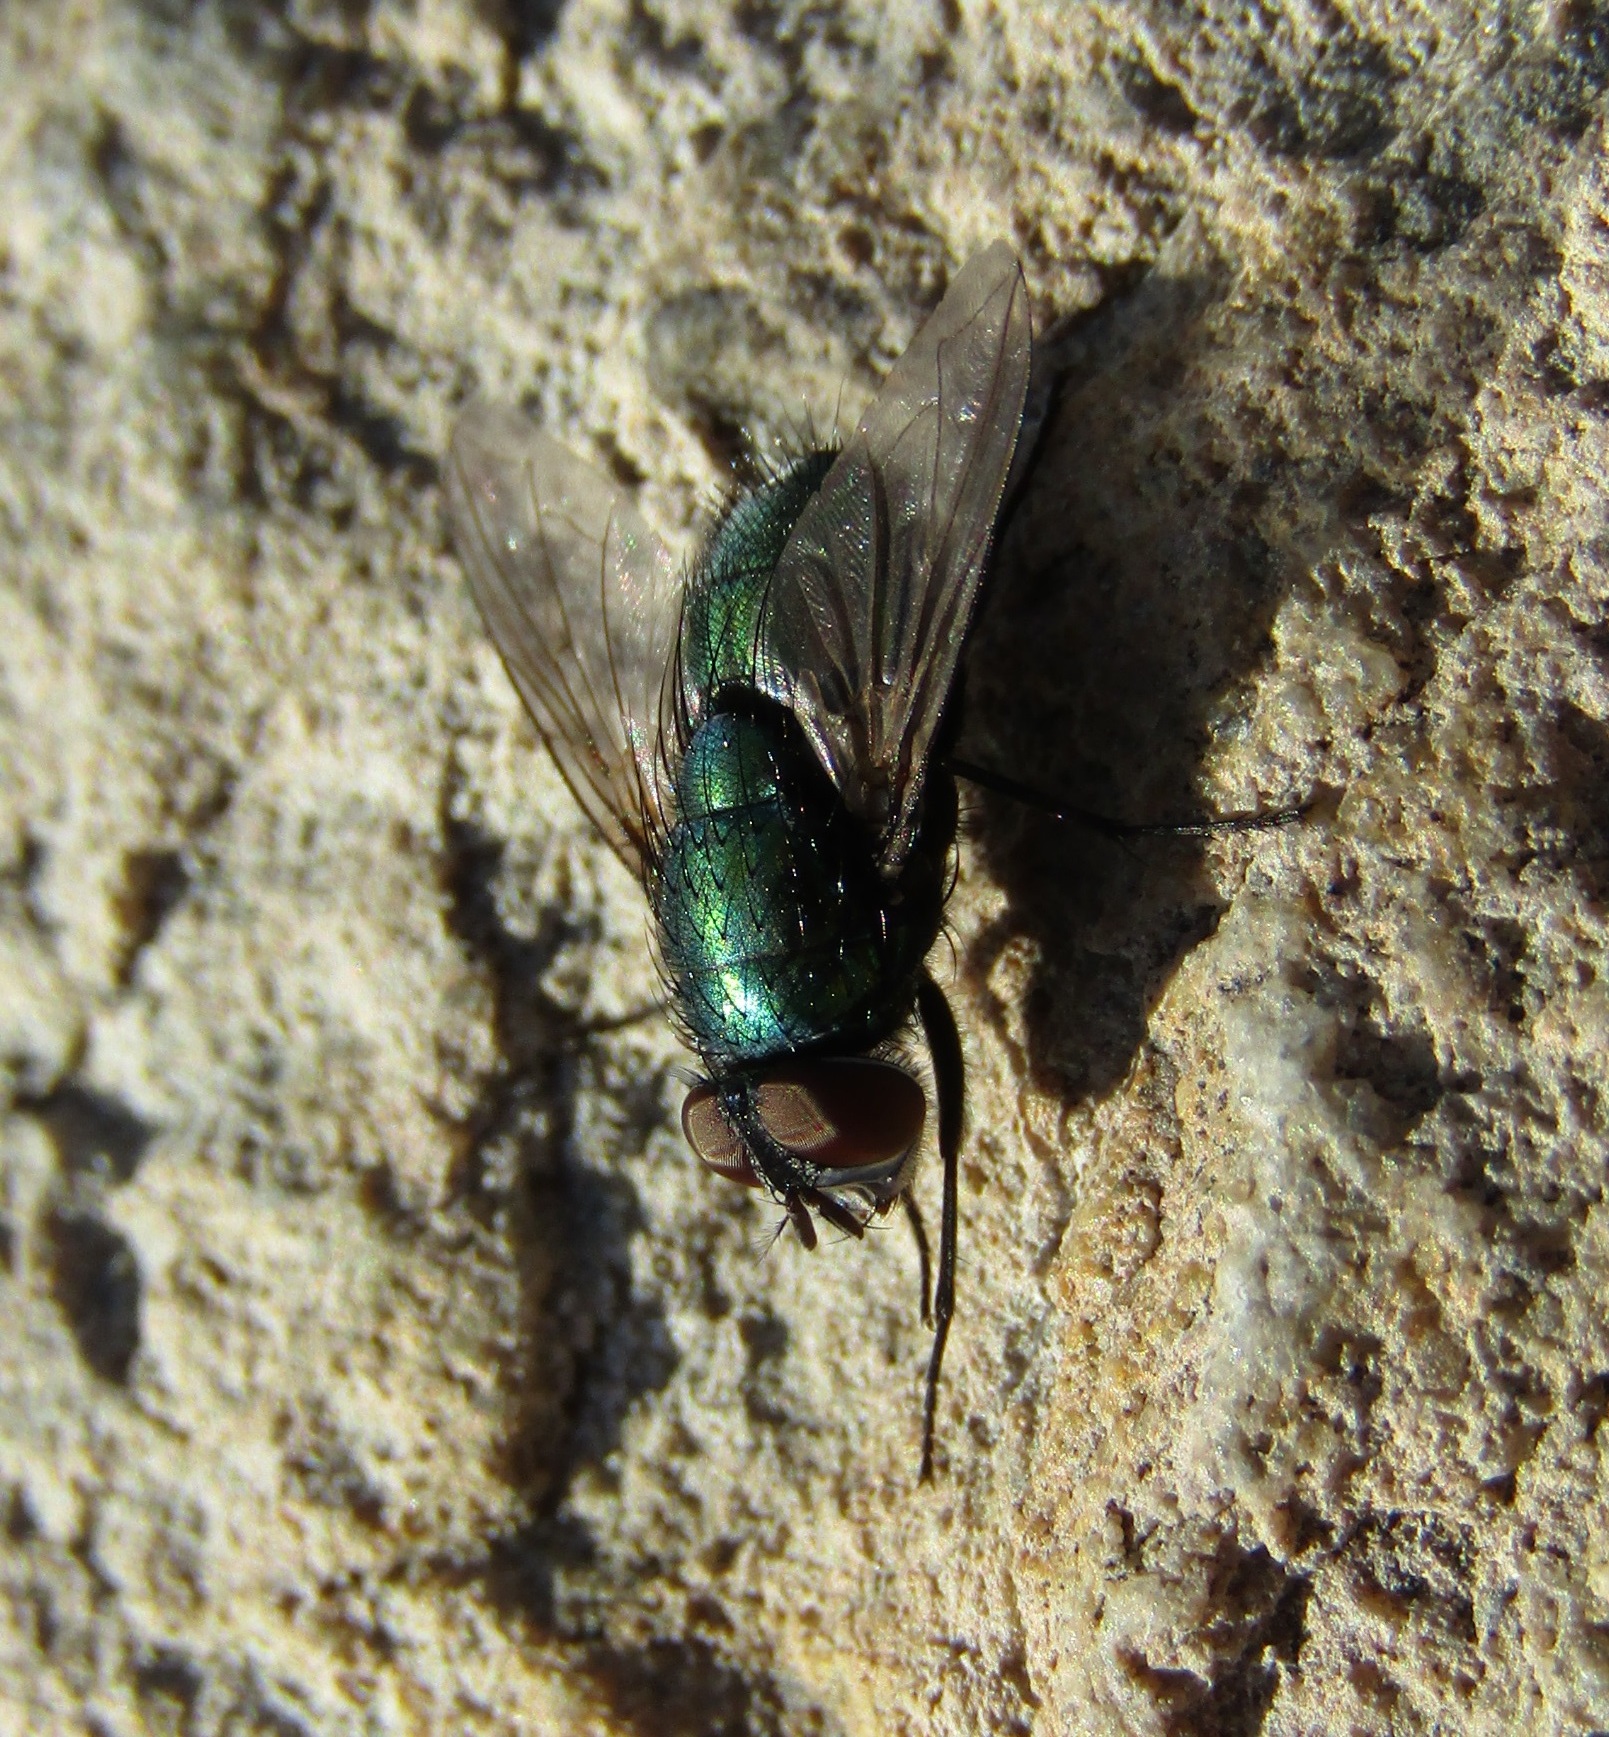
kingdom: Animalia
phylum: Arthropoda
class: Insecta
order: Diptera
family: Calliphoridae
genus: Lucilia
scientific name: Lucilia sericata
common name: Blow fly
